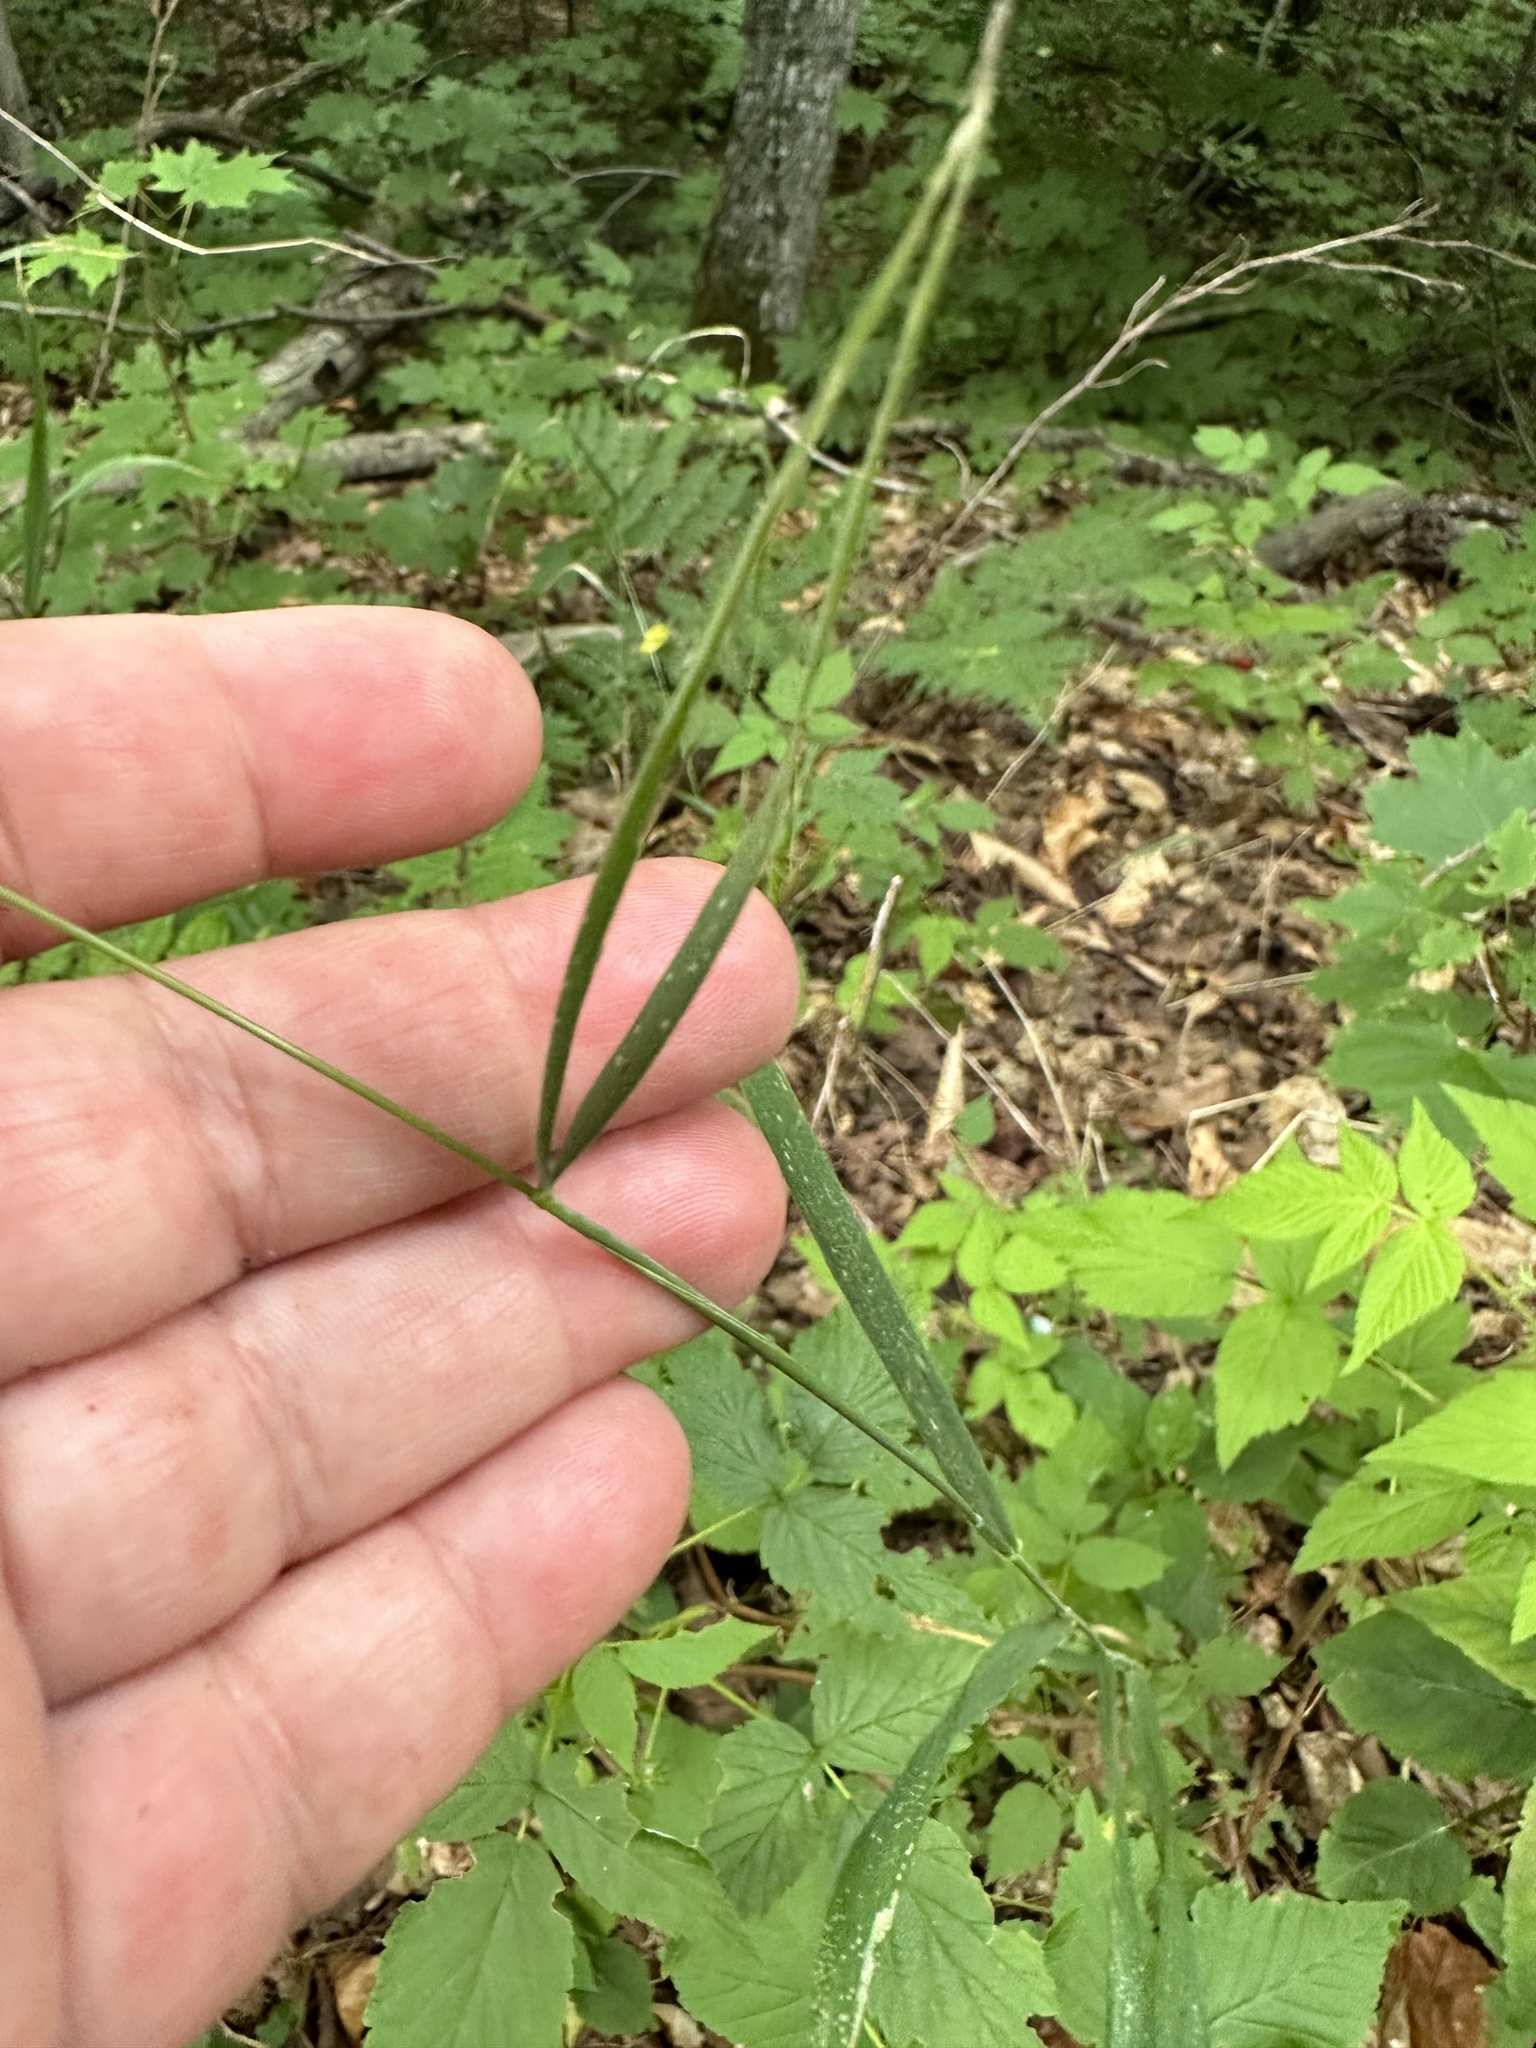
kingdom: Plantae
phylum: Tracheophyta
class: Liliopsida
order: Poales
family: Poaceae
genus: Elymus
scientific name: Elymus hystrix
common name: Bottlebrush grass
